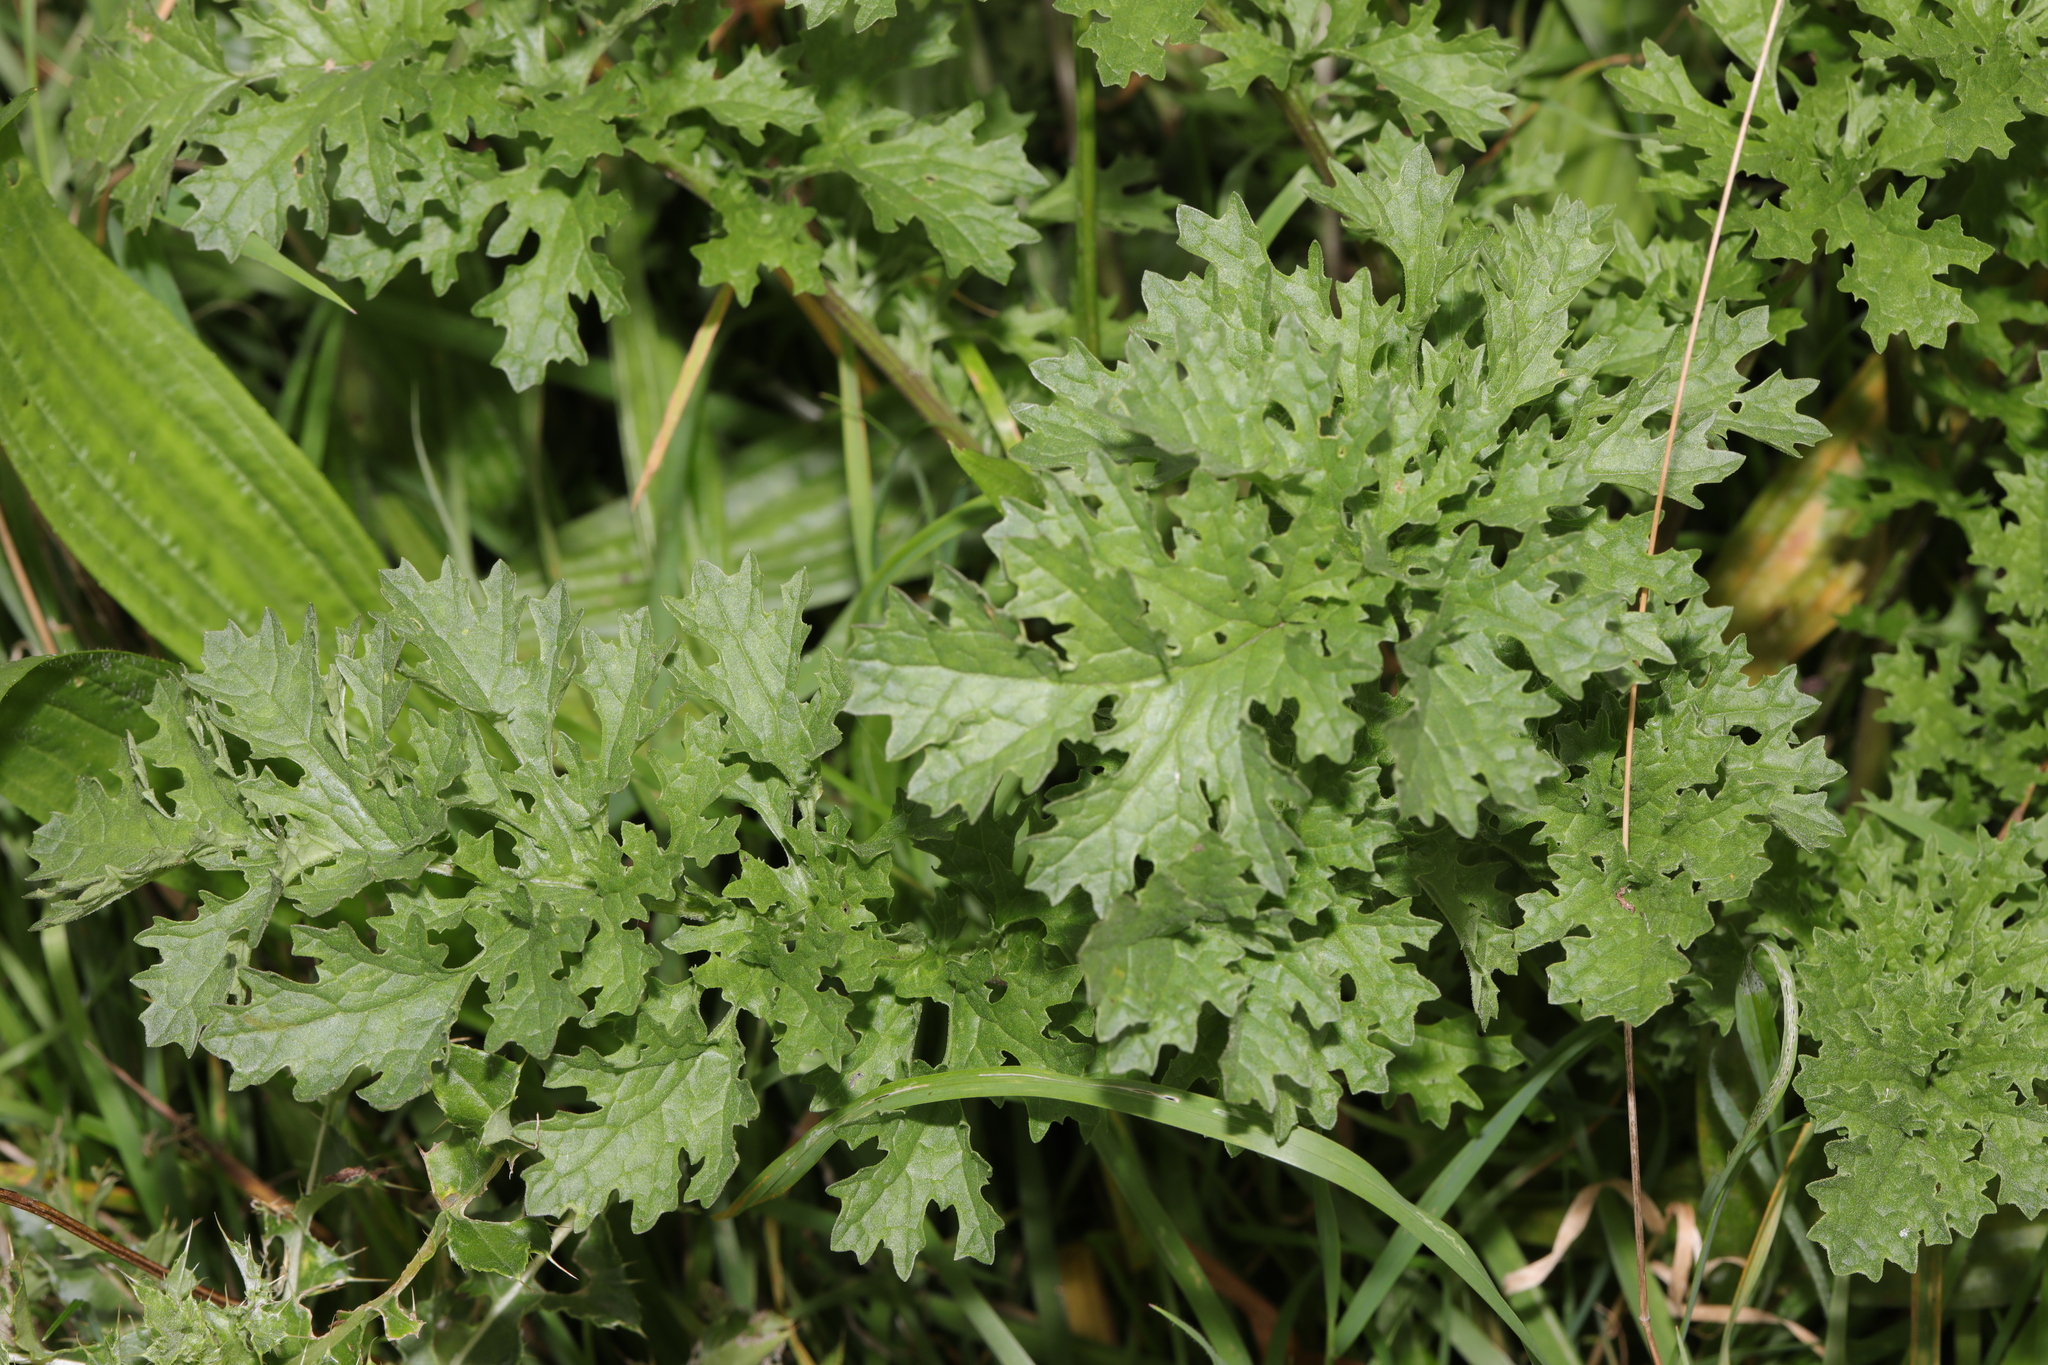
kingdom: Plantae
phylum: Tracheophyta
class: Magnoliopsida
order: Asterales
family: Asteraceae
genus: Jacobaea
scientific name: Jacobaea vulgaris
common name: Stinking willie
